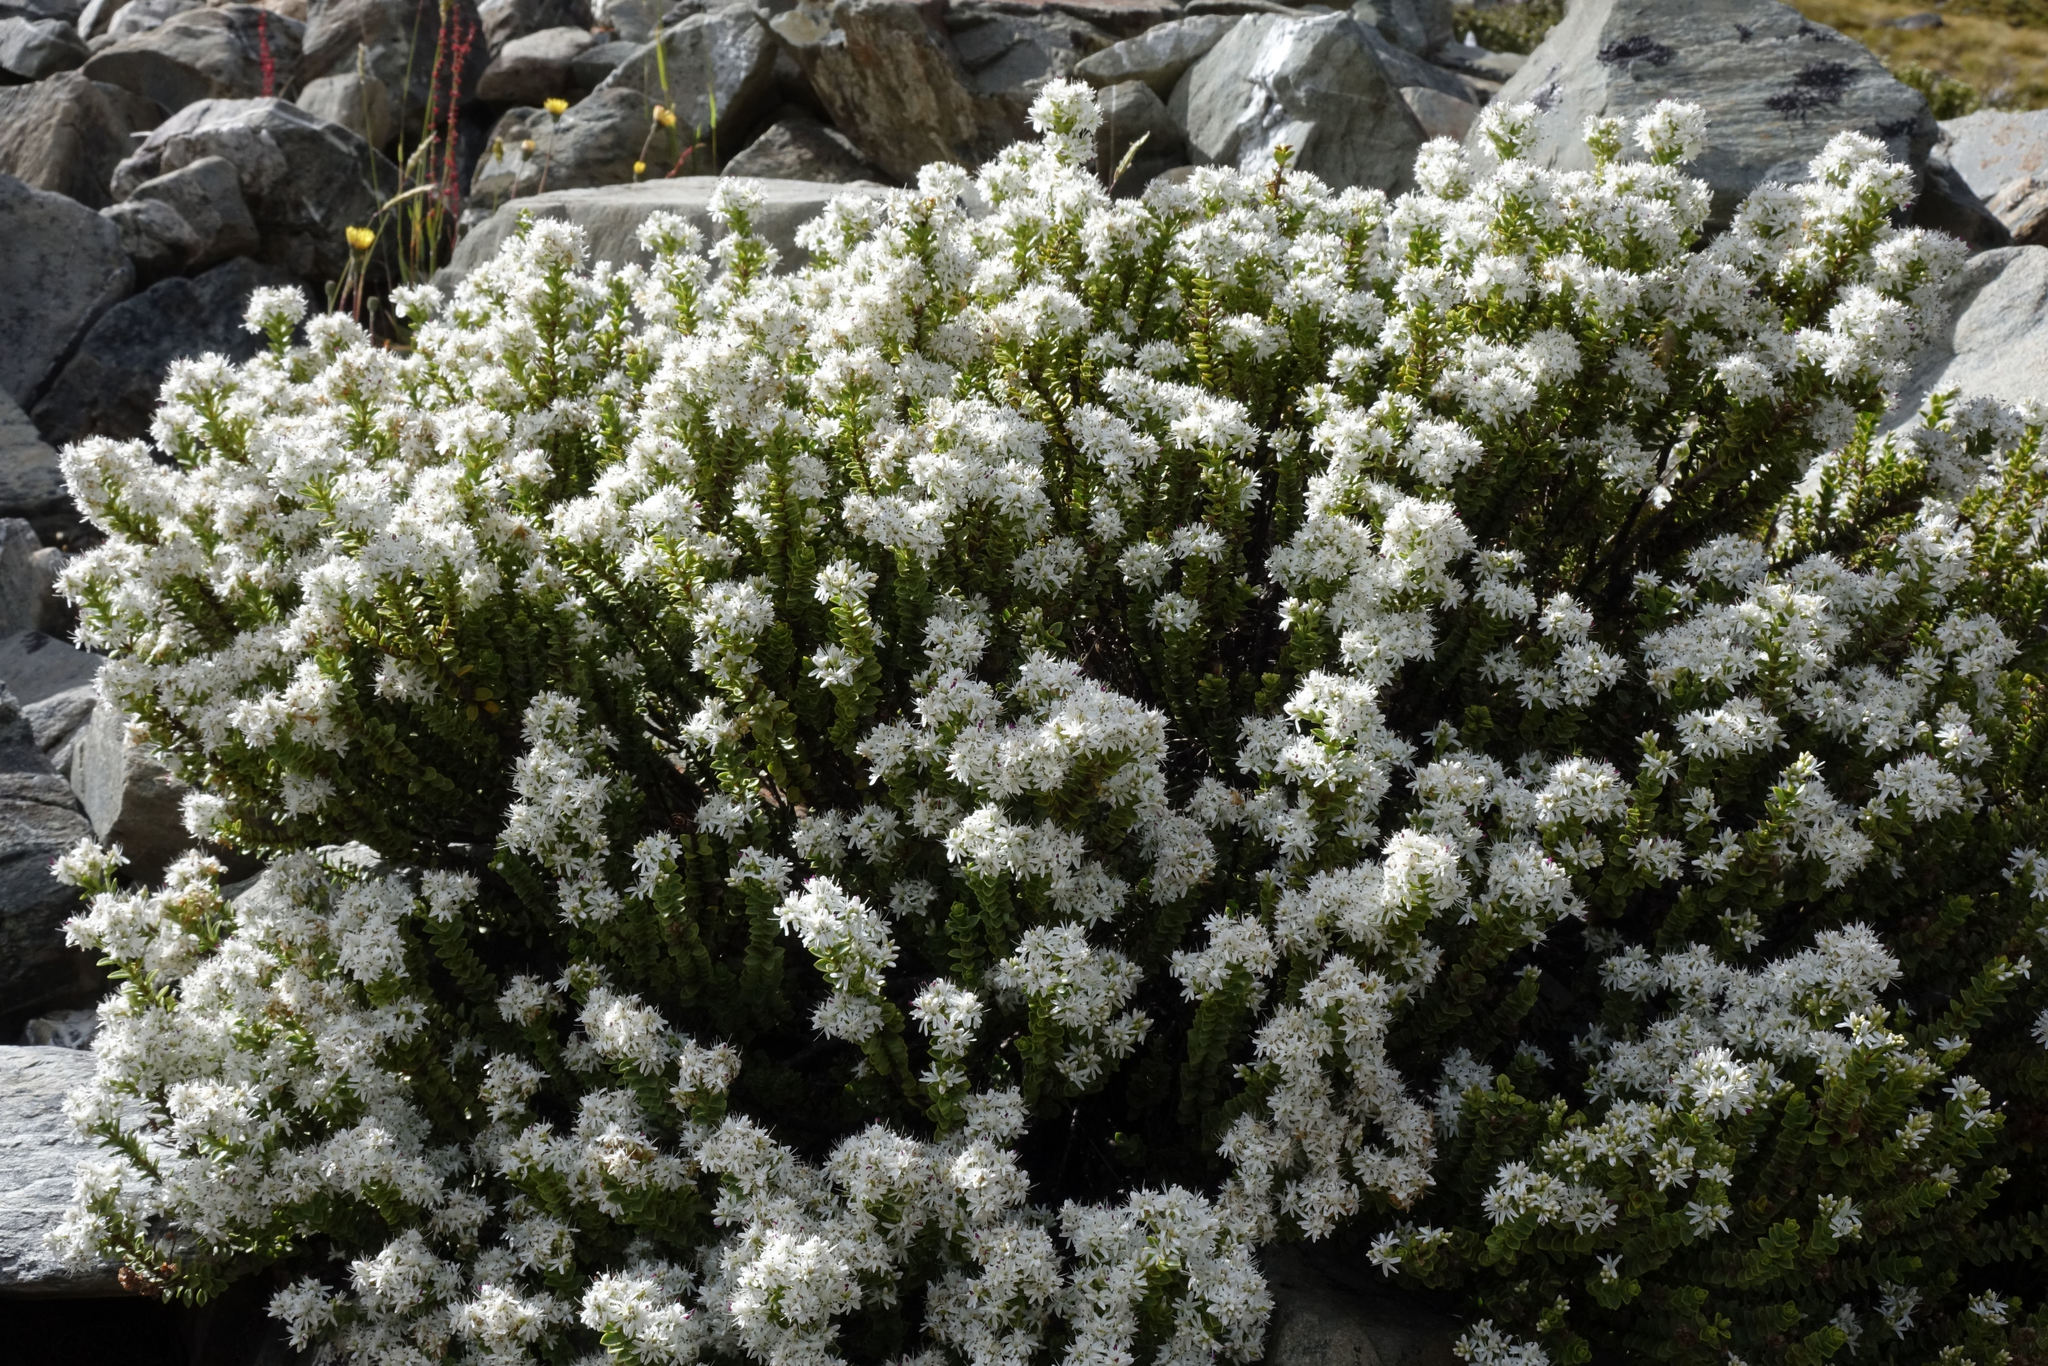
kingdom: Plantae
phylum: Tracheophyta
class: Magnoliopsida
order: Lamiales
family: Plantaginaceae
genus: Veronica
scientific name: Veronica buchananii
